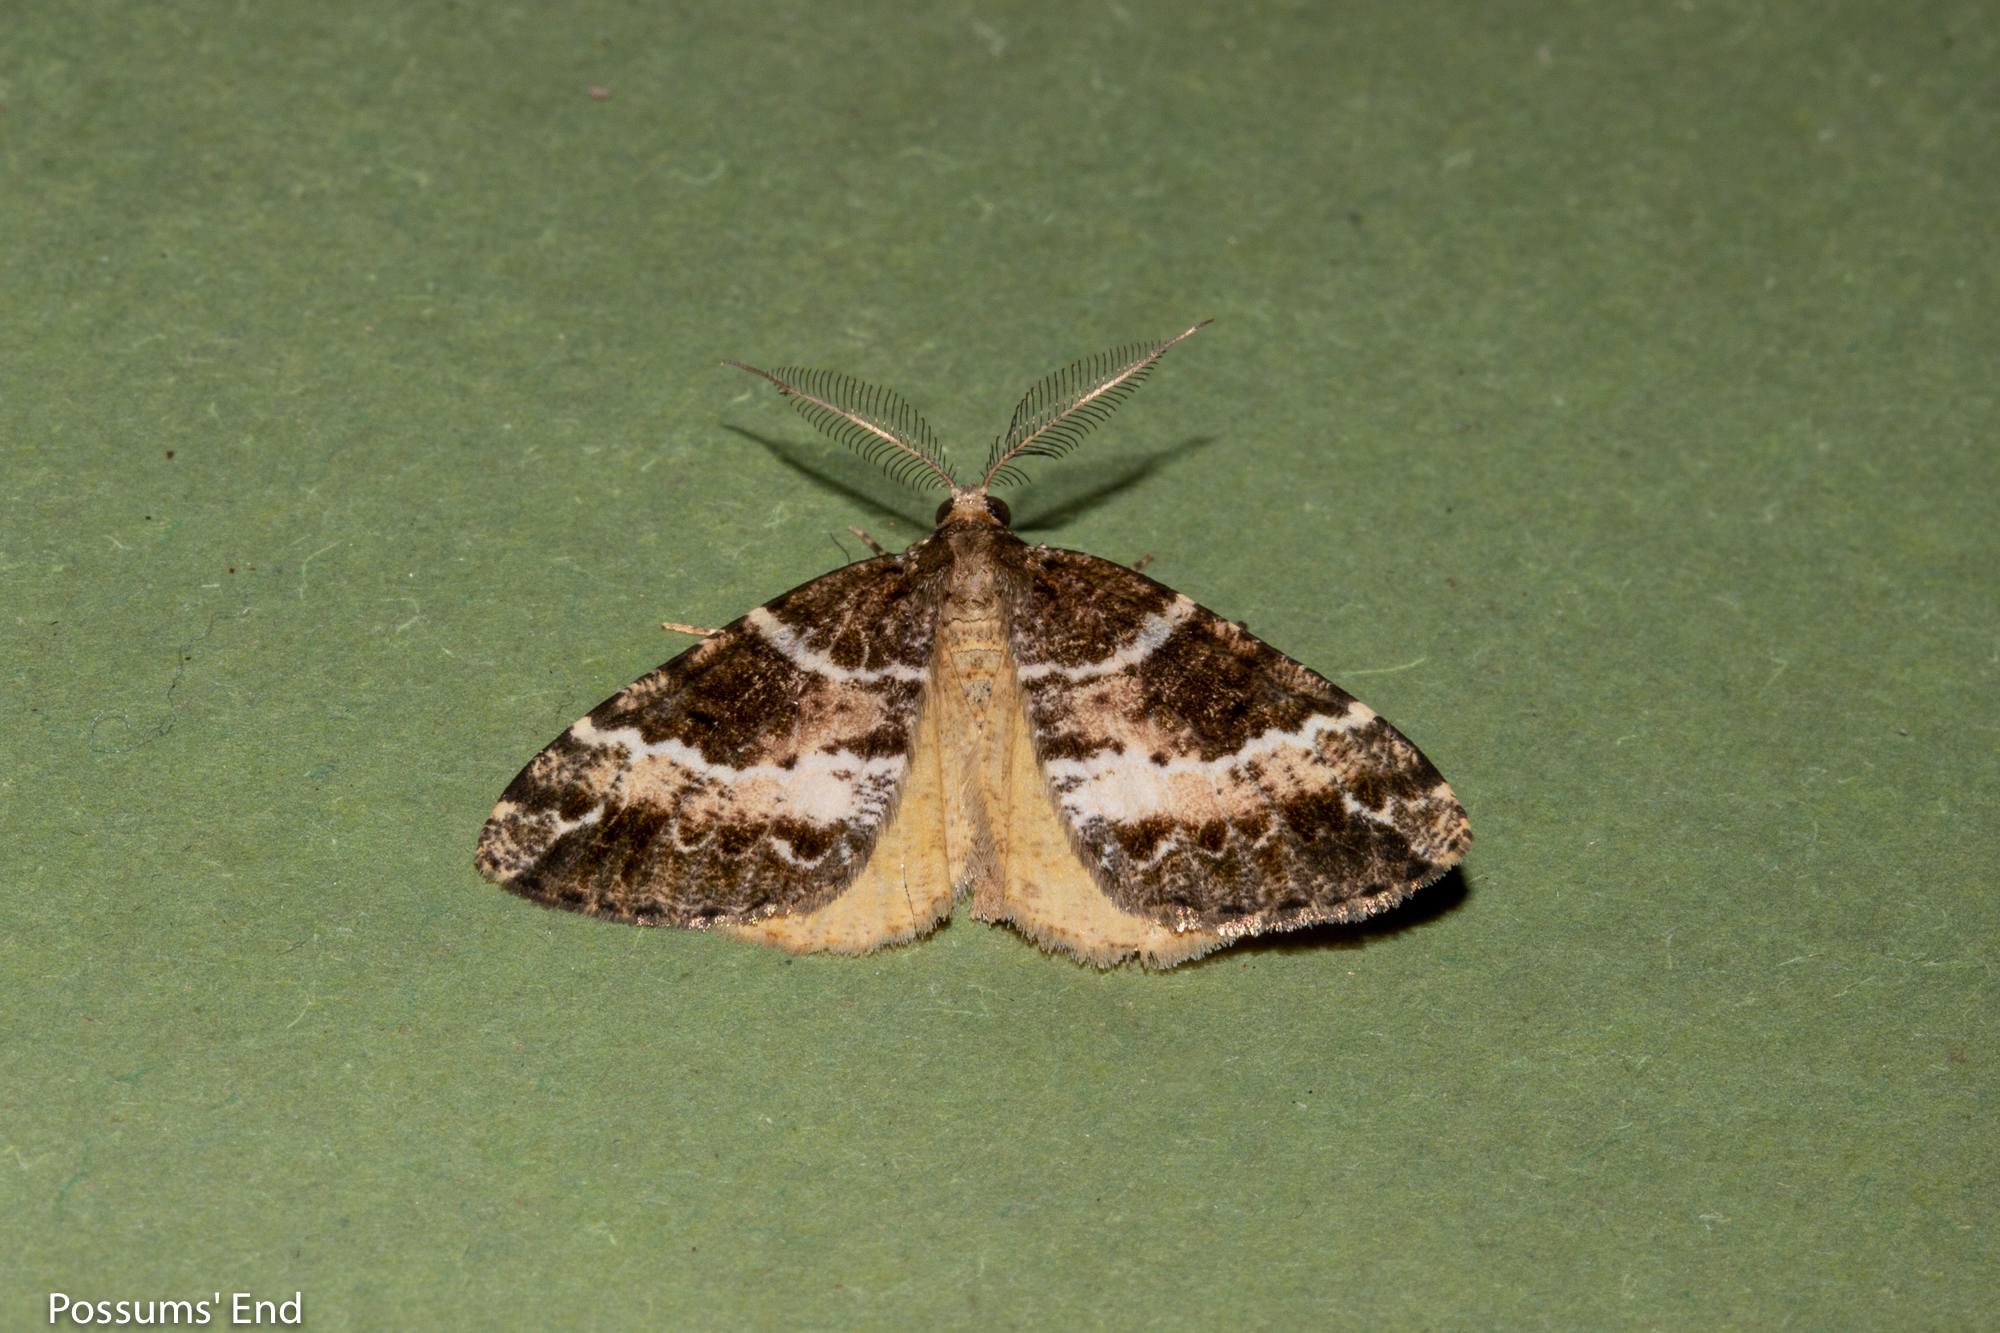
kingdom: Animalia
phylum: Arthropoda
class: Insecta
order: Lepidoptera
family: Geometridae
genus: Pseudocoremia
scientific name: Pseudocoremia
